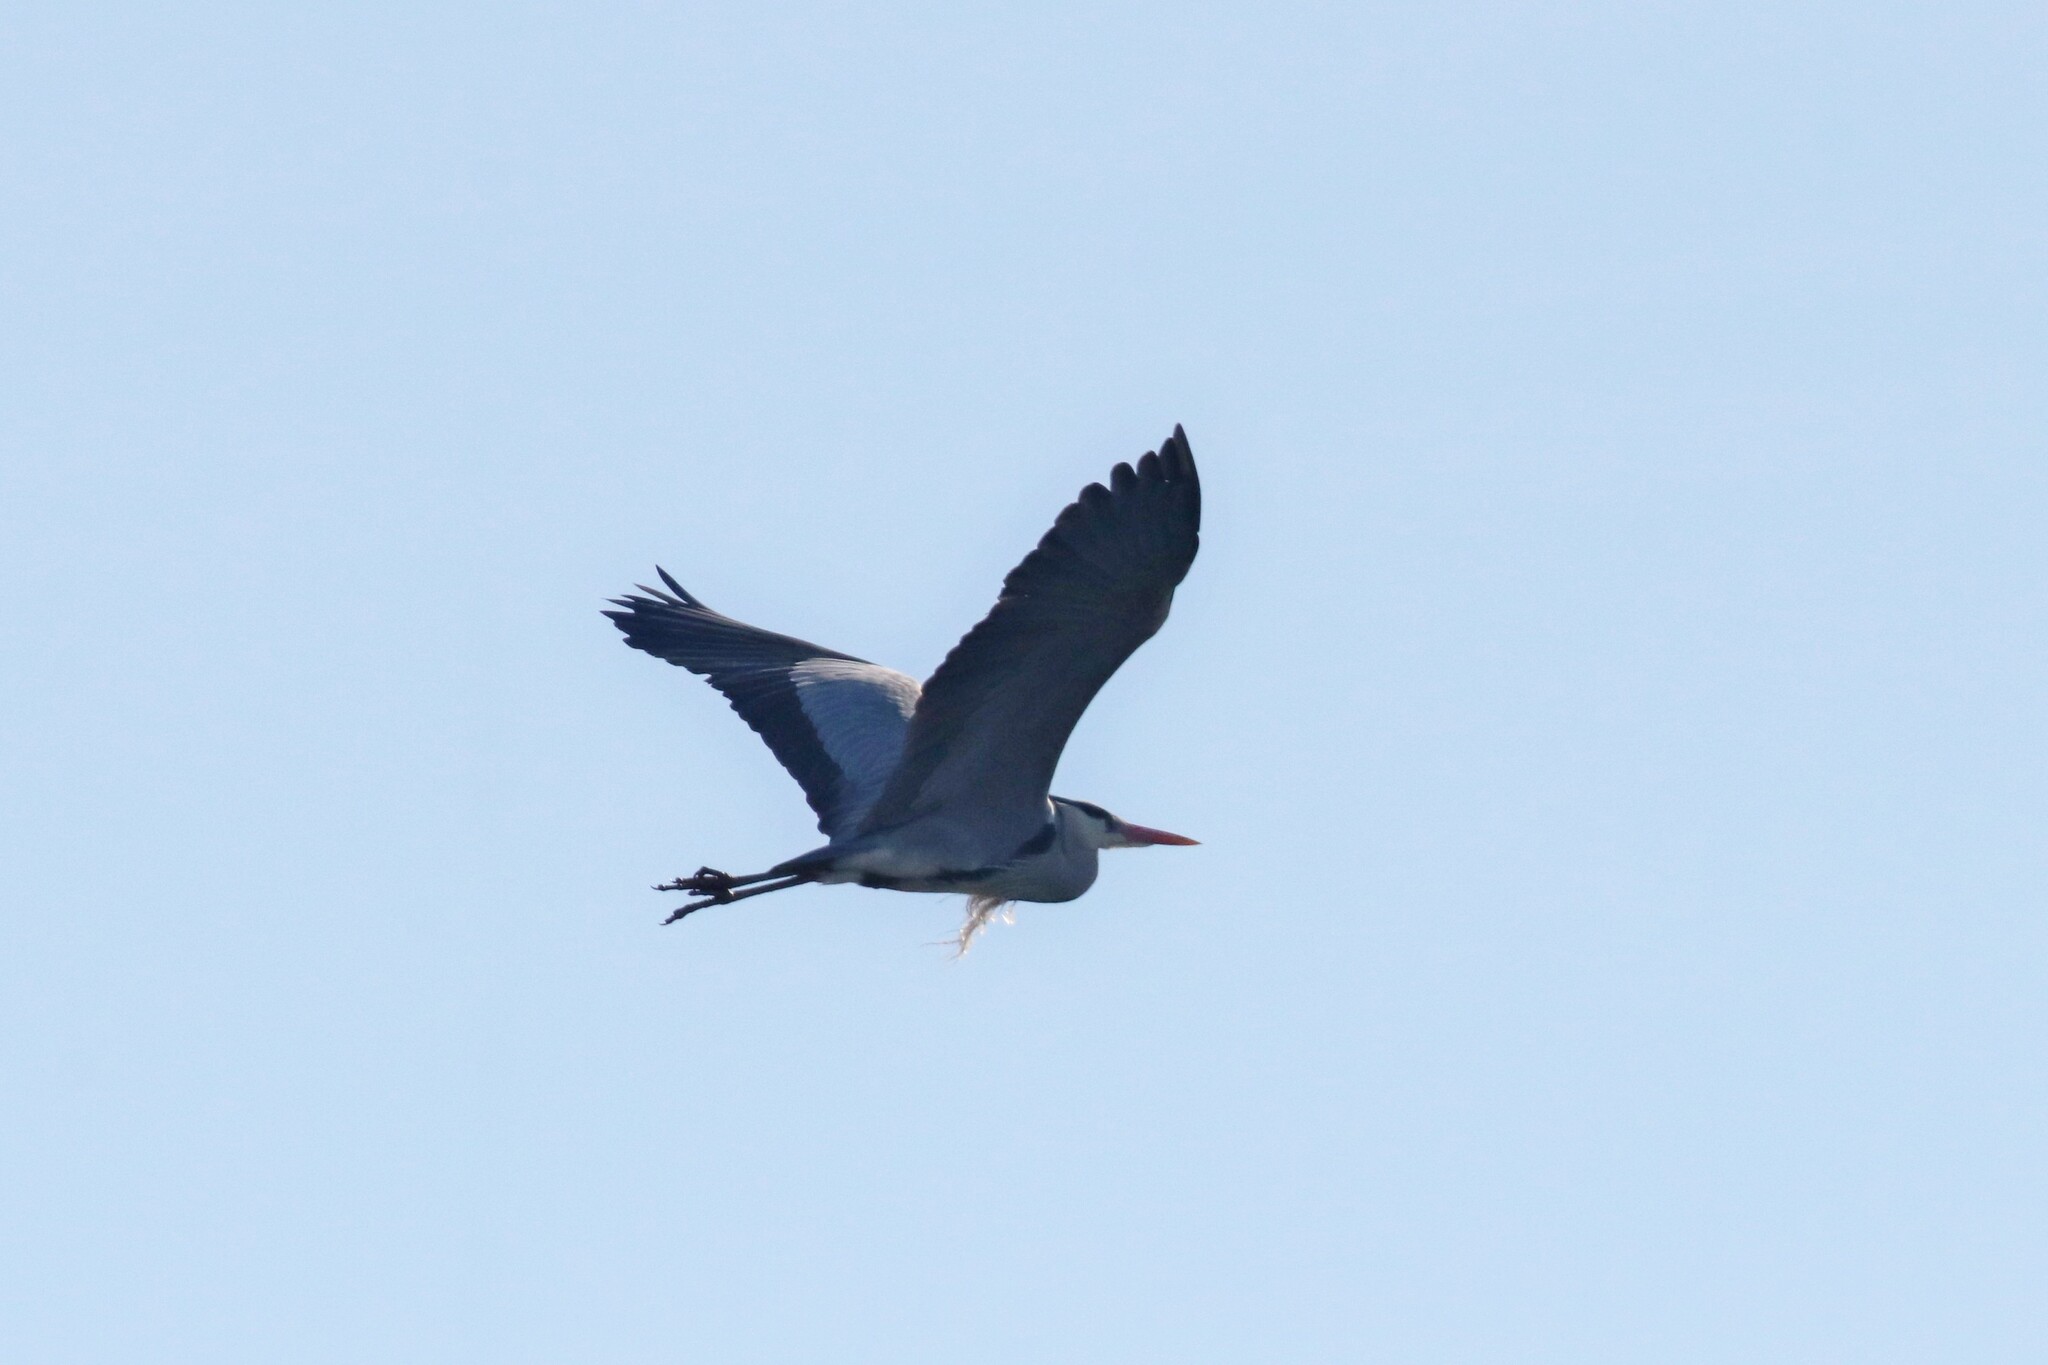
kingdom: Animalia
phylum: Chordata
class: Aves
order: Pelecaniformes
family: Ardeidae
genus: Ardea
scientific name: Ardea cinerea
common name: Grey heron
